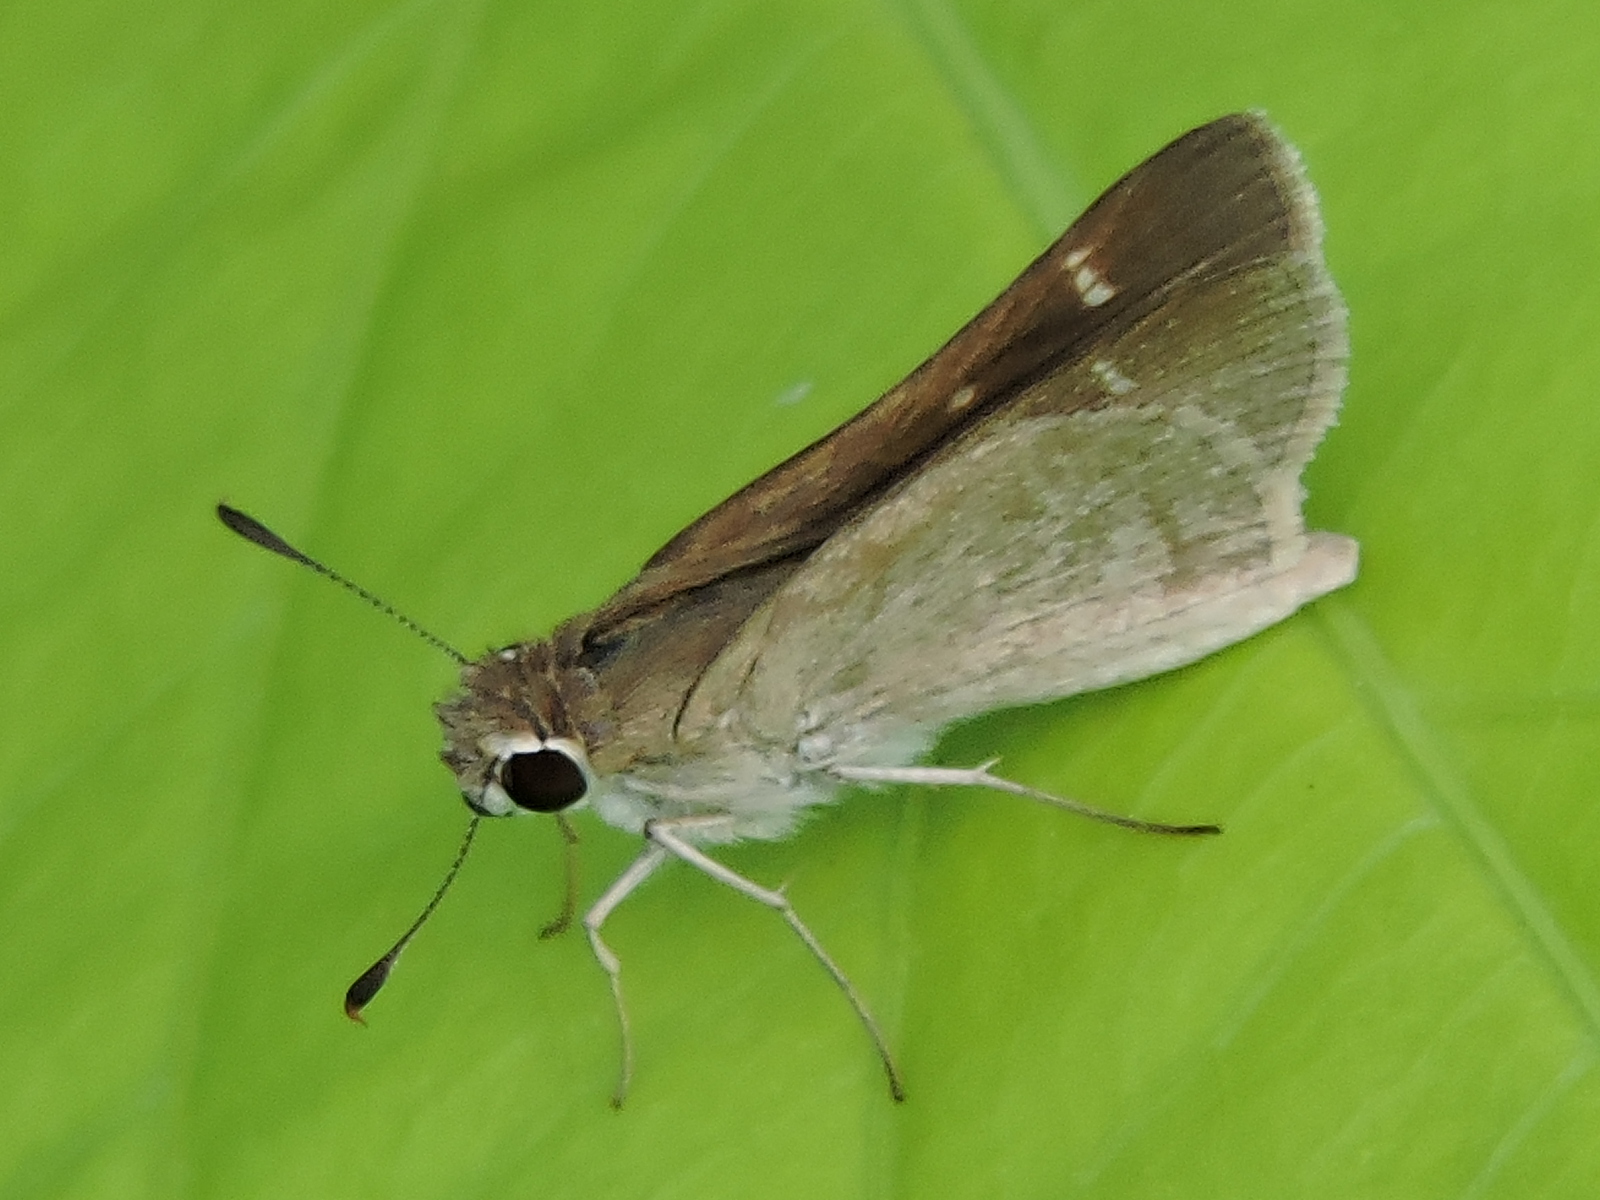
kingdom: Animalia
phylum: Arthropoda
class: Insecta
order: Lepidoptera
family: Hesperiidae
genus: Lerodea
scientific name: Lerodea eufala
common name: Eufala skipper
